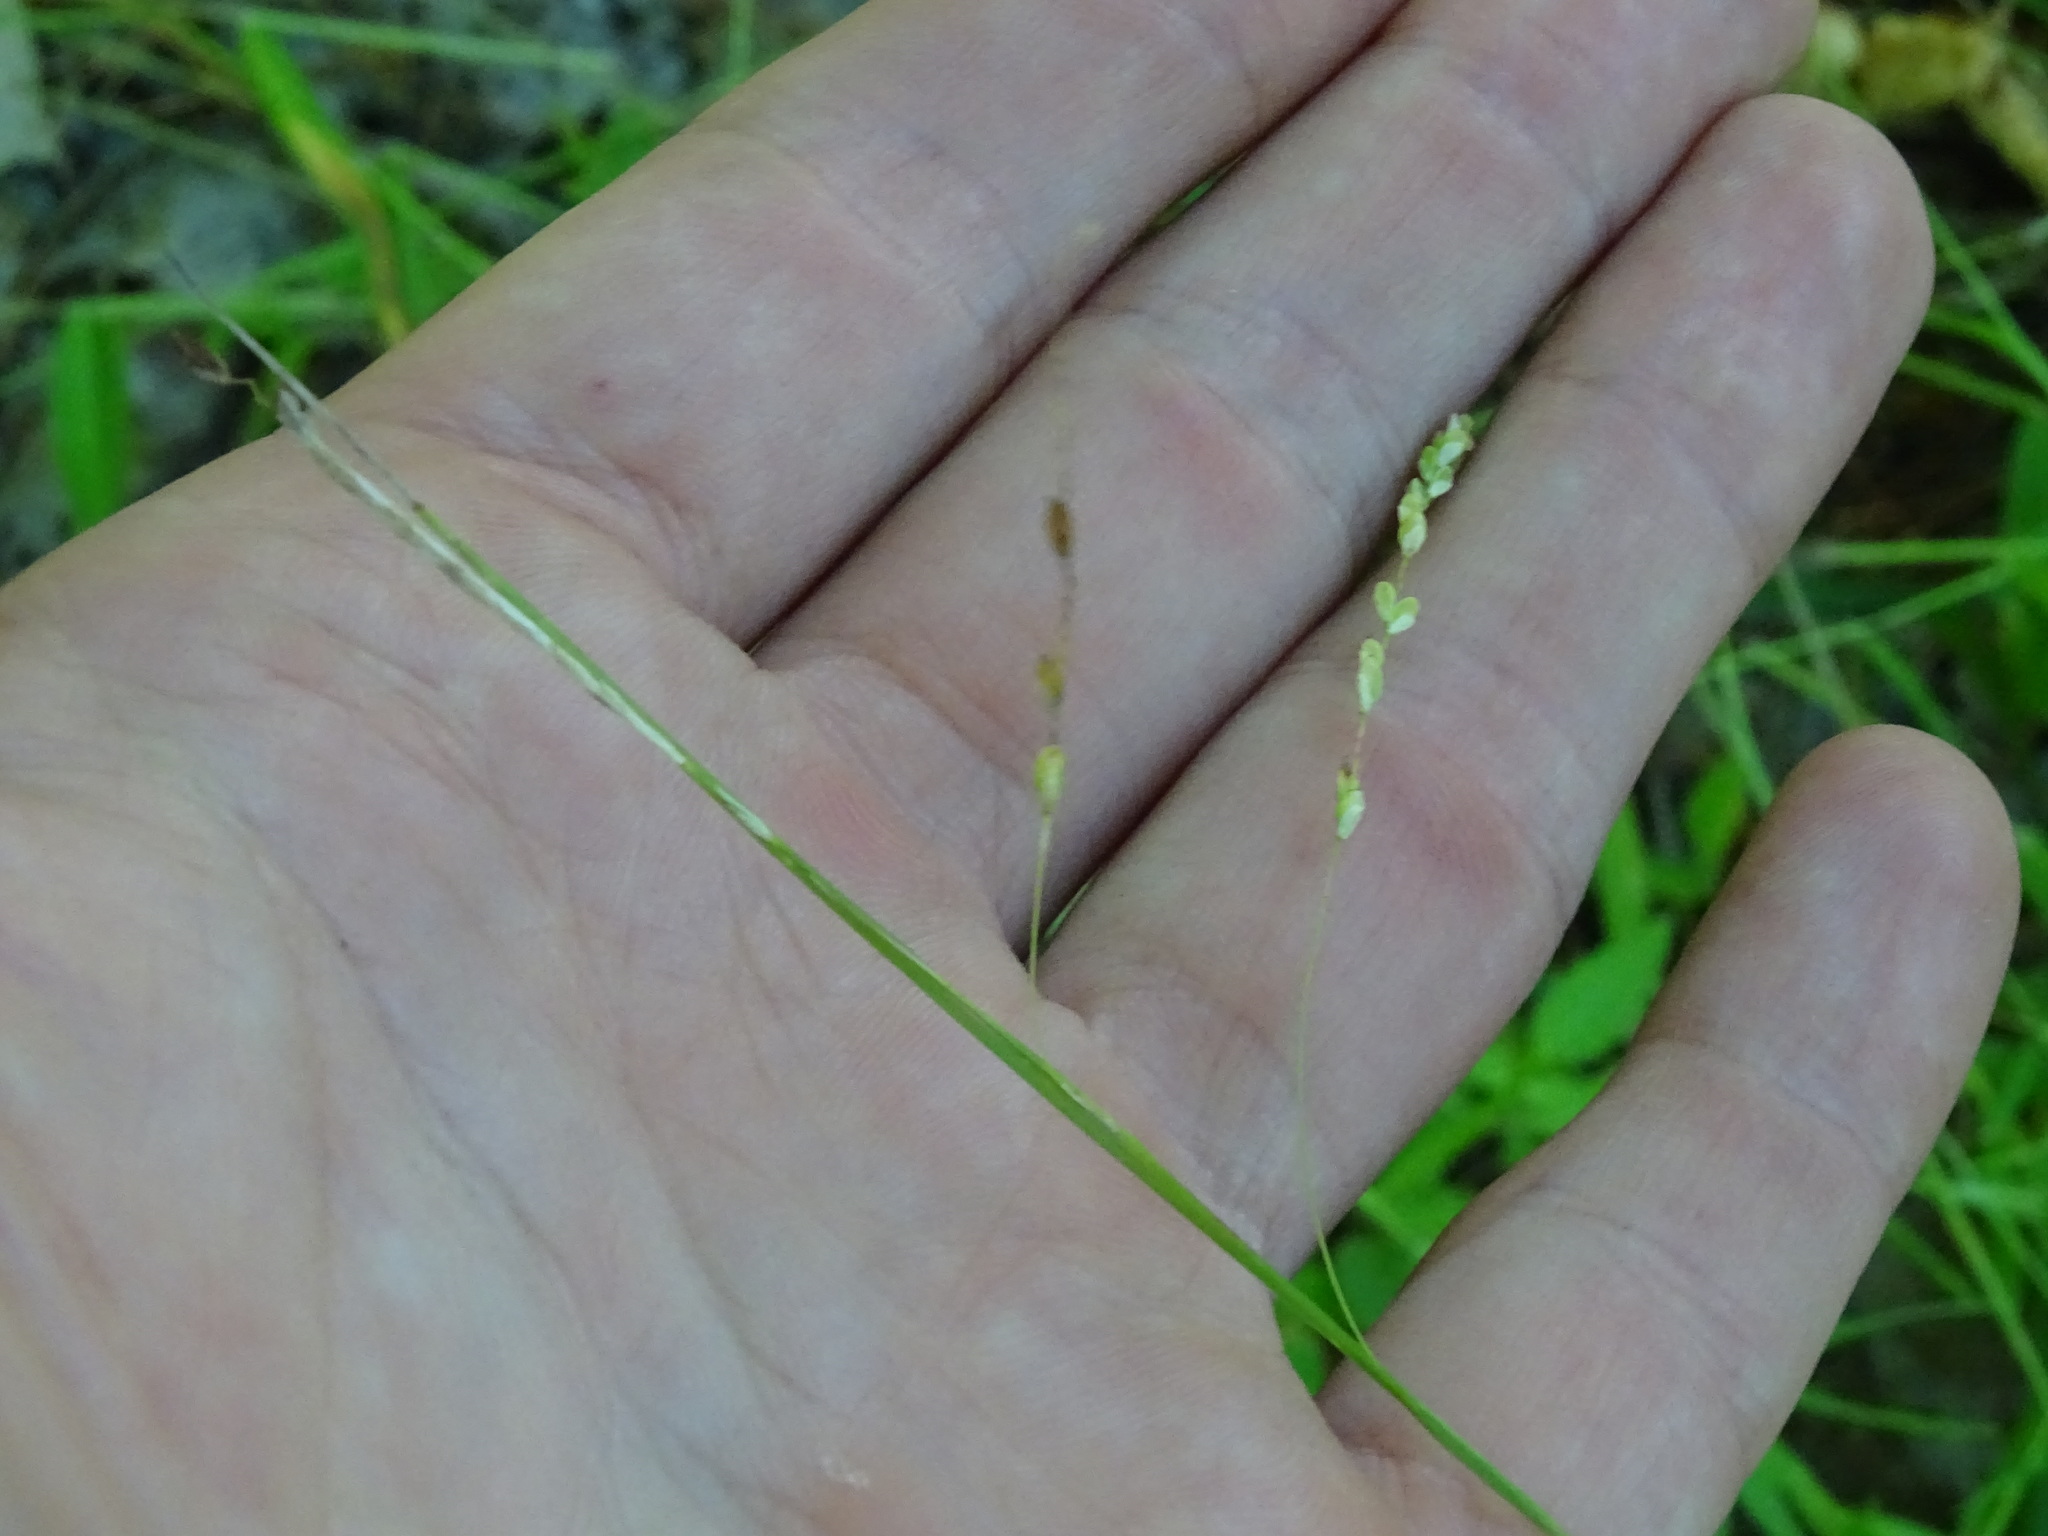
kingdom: Plantae
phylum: Tracheophyta
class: Liliopsida
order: Poales
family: Cyperaceae
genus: Carex
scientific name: Carex gracillima
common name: Graceful sedge
